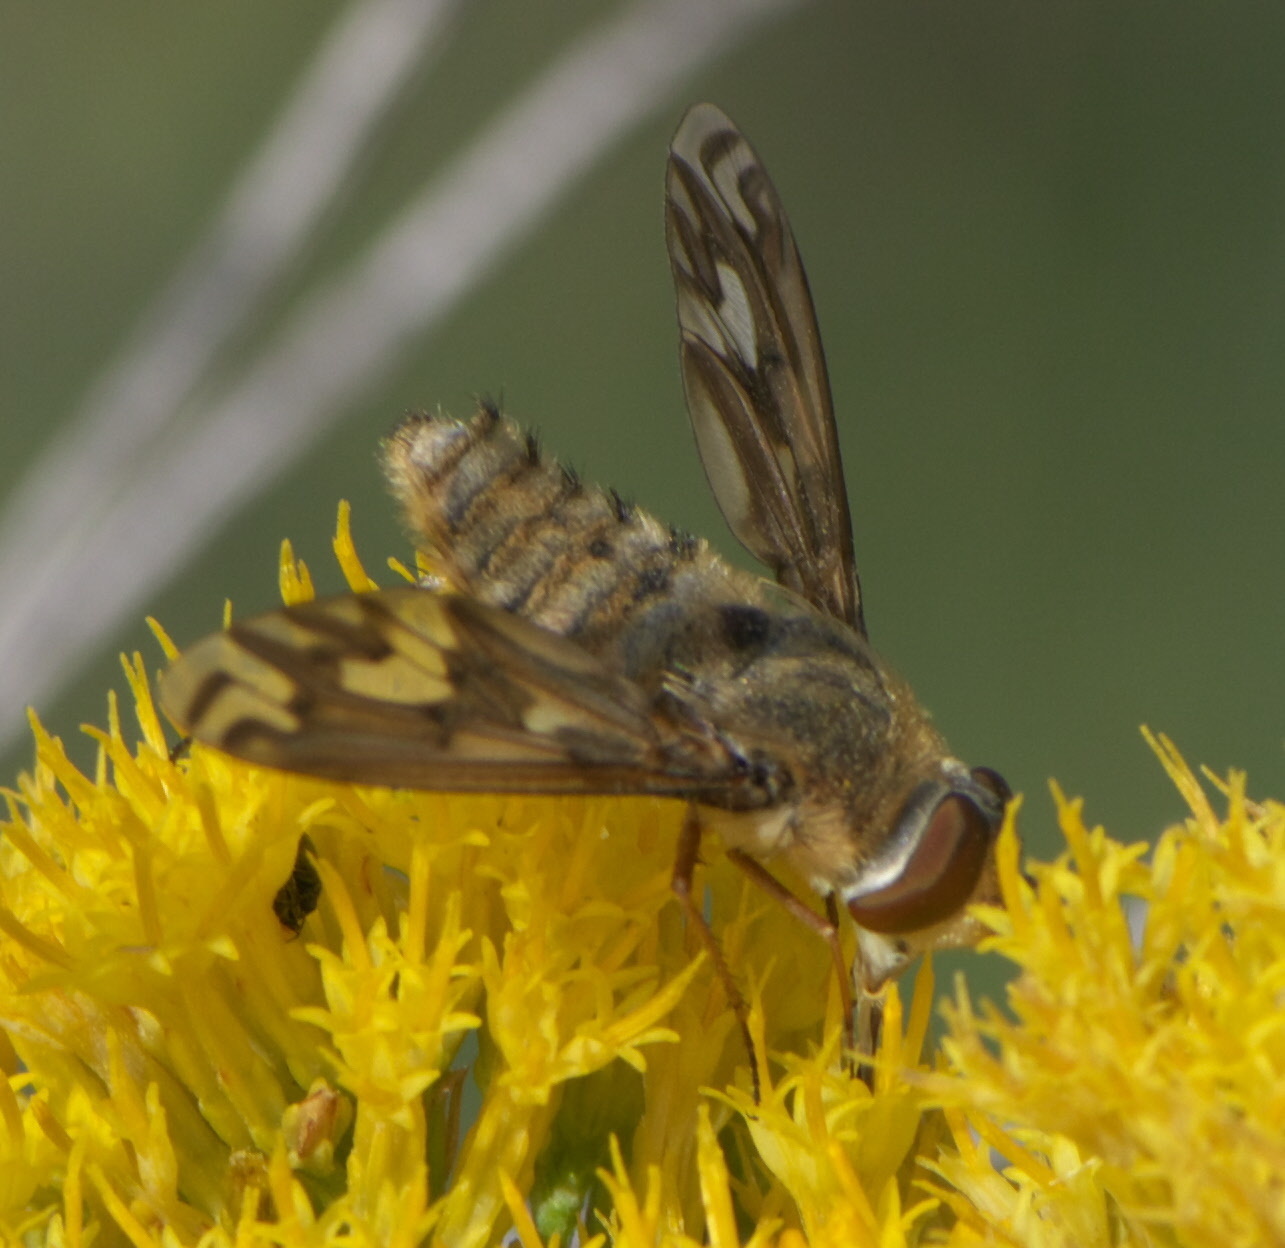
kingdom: Animalia
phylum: Arthropoda
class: Insecta
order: Diptera
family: Bombyliidae
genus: Poecilanthrax
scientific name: Poecilanthrax willistonii
